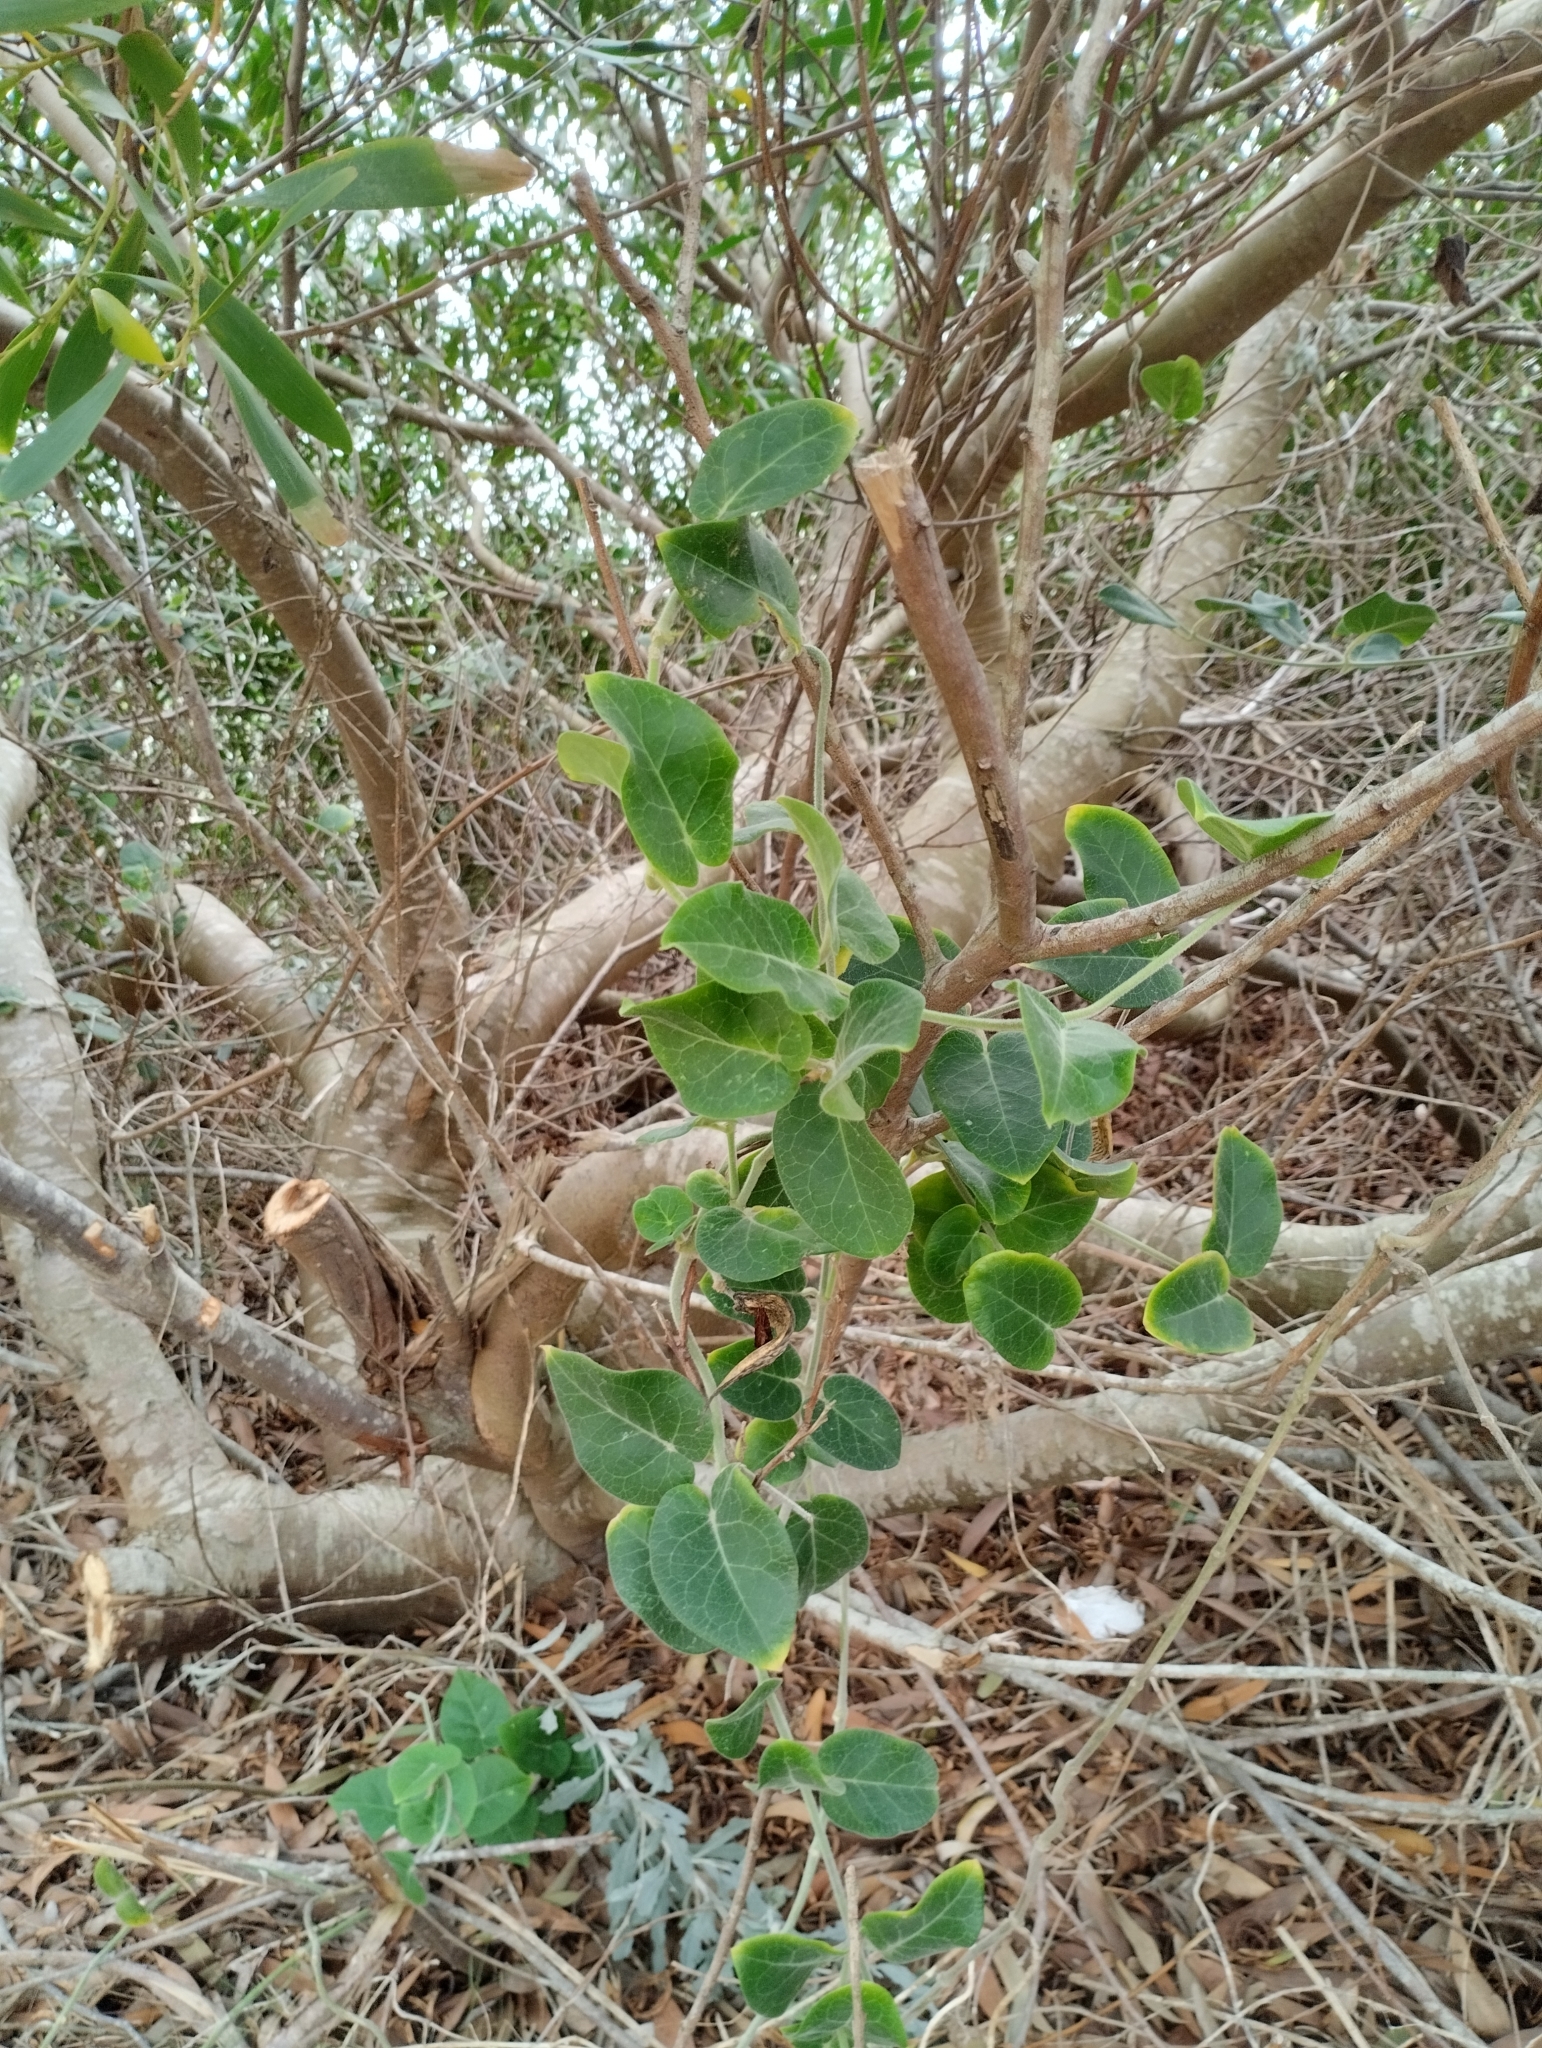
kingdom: Plantae
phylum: Tracheophyta
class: Magnoliopsida
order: Gentianales
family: Apocynaceae
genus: Oxypetalum
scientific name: Oxypetalum tomentosum
